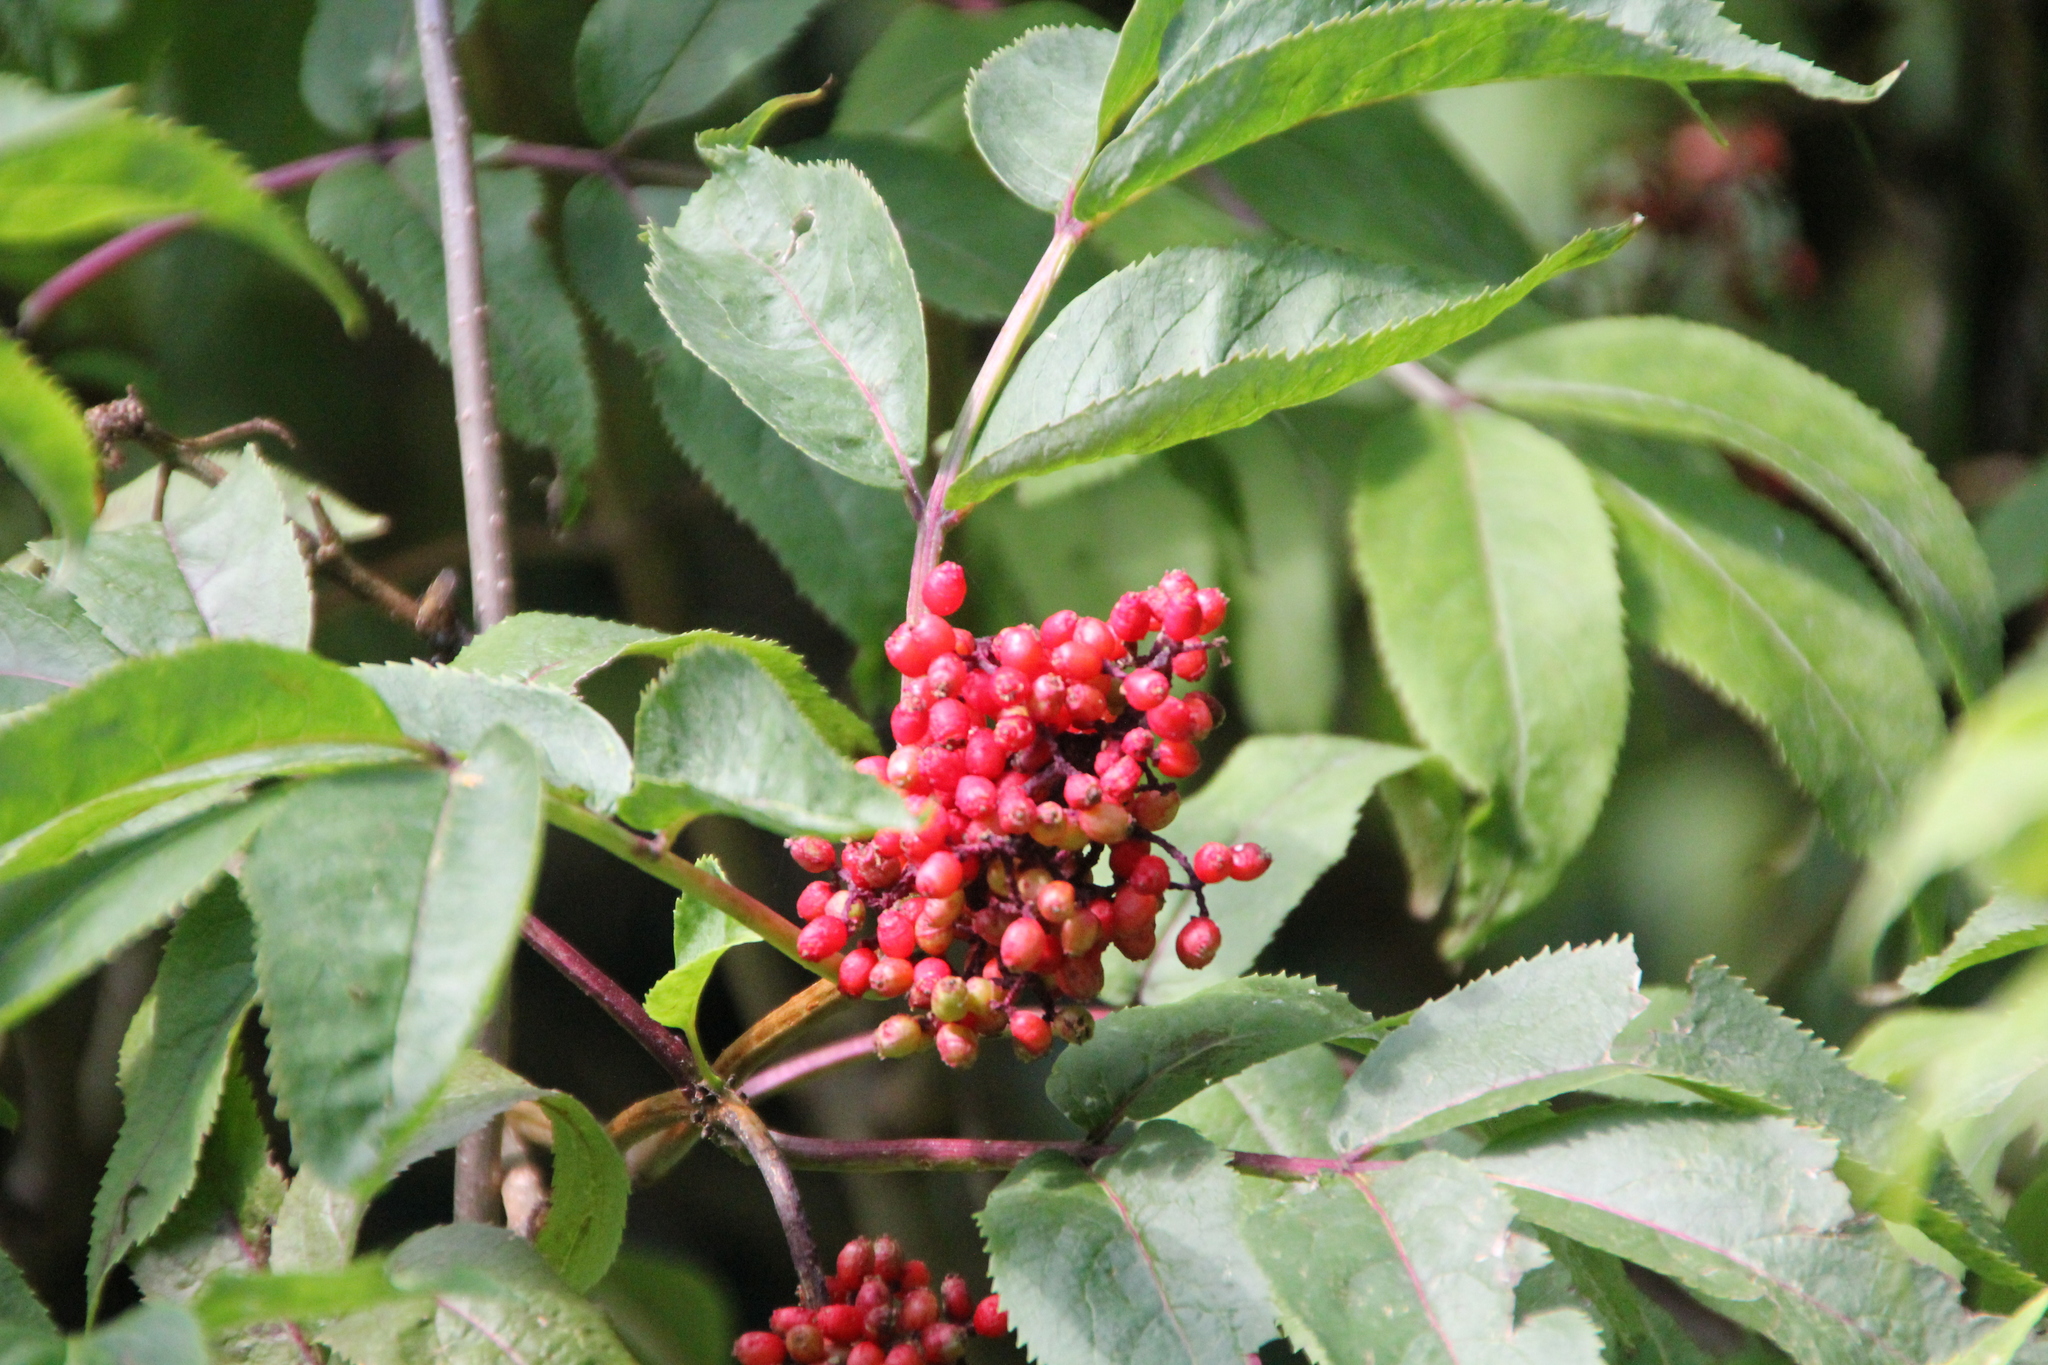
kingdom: Plantae
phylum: Tracheophyta
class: Magnoliopsida
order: Dipsacales
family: Viburnaceae
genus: Sambucus
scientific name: Sambucus racemosa
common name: Red-berried elder
